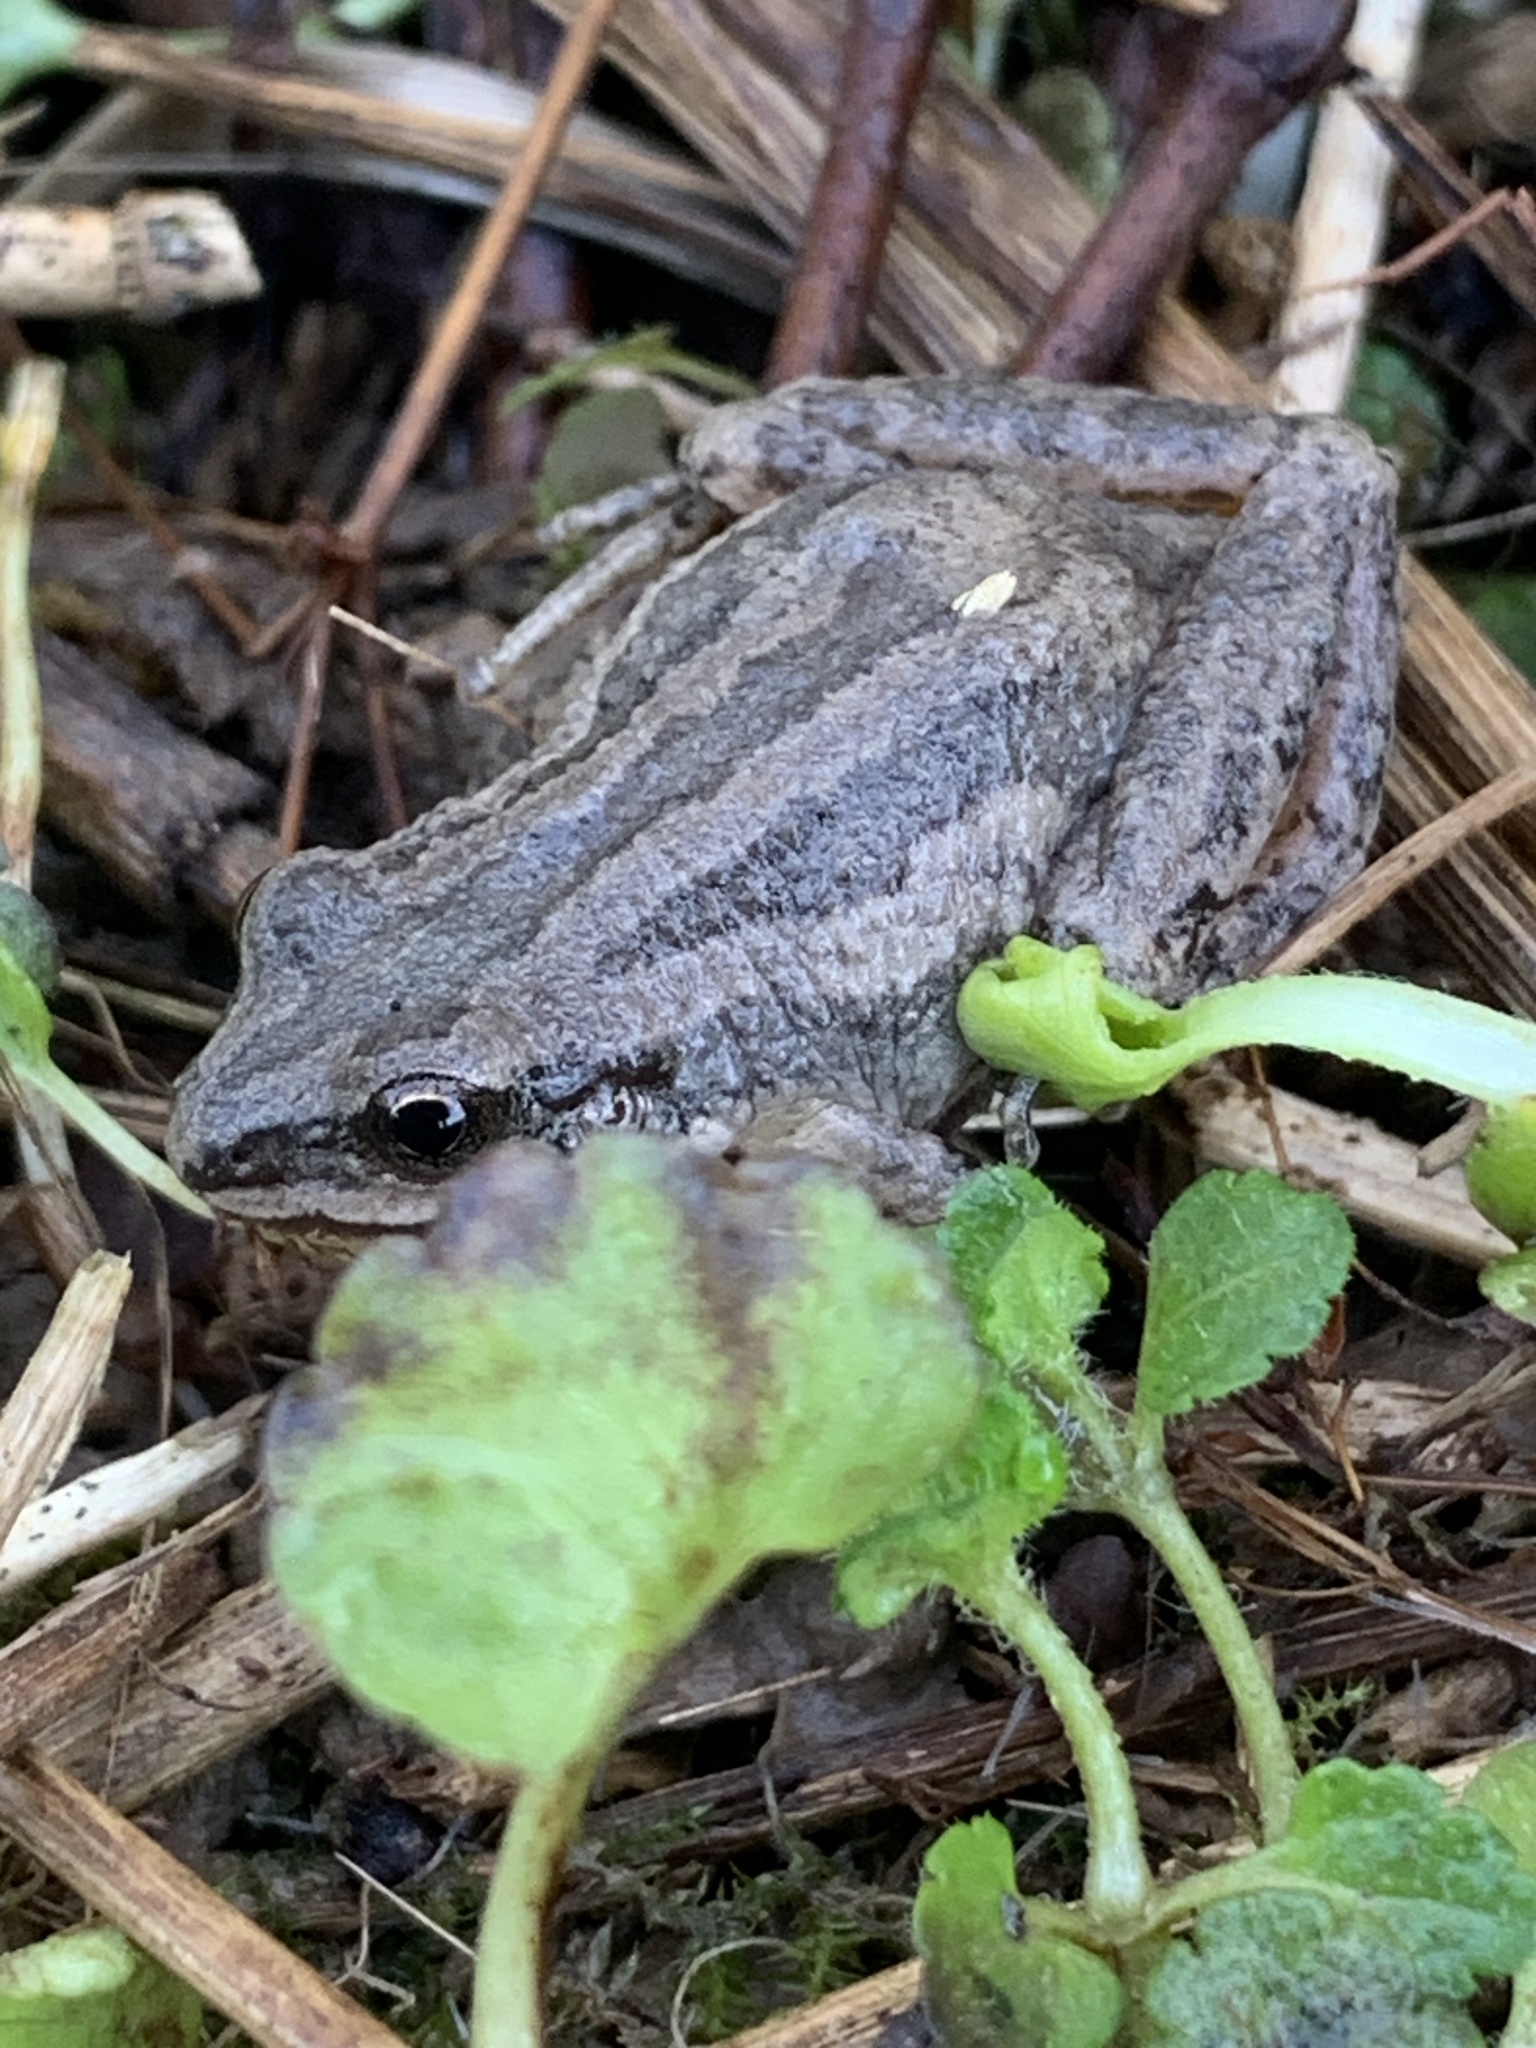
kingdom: Animalia
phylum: Chordata
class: Amphibia
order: Anura
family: Hylidae
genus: Pseudacris
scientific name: Pseudacris triseriata
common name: Western chorus frog
